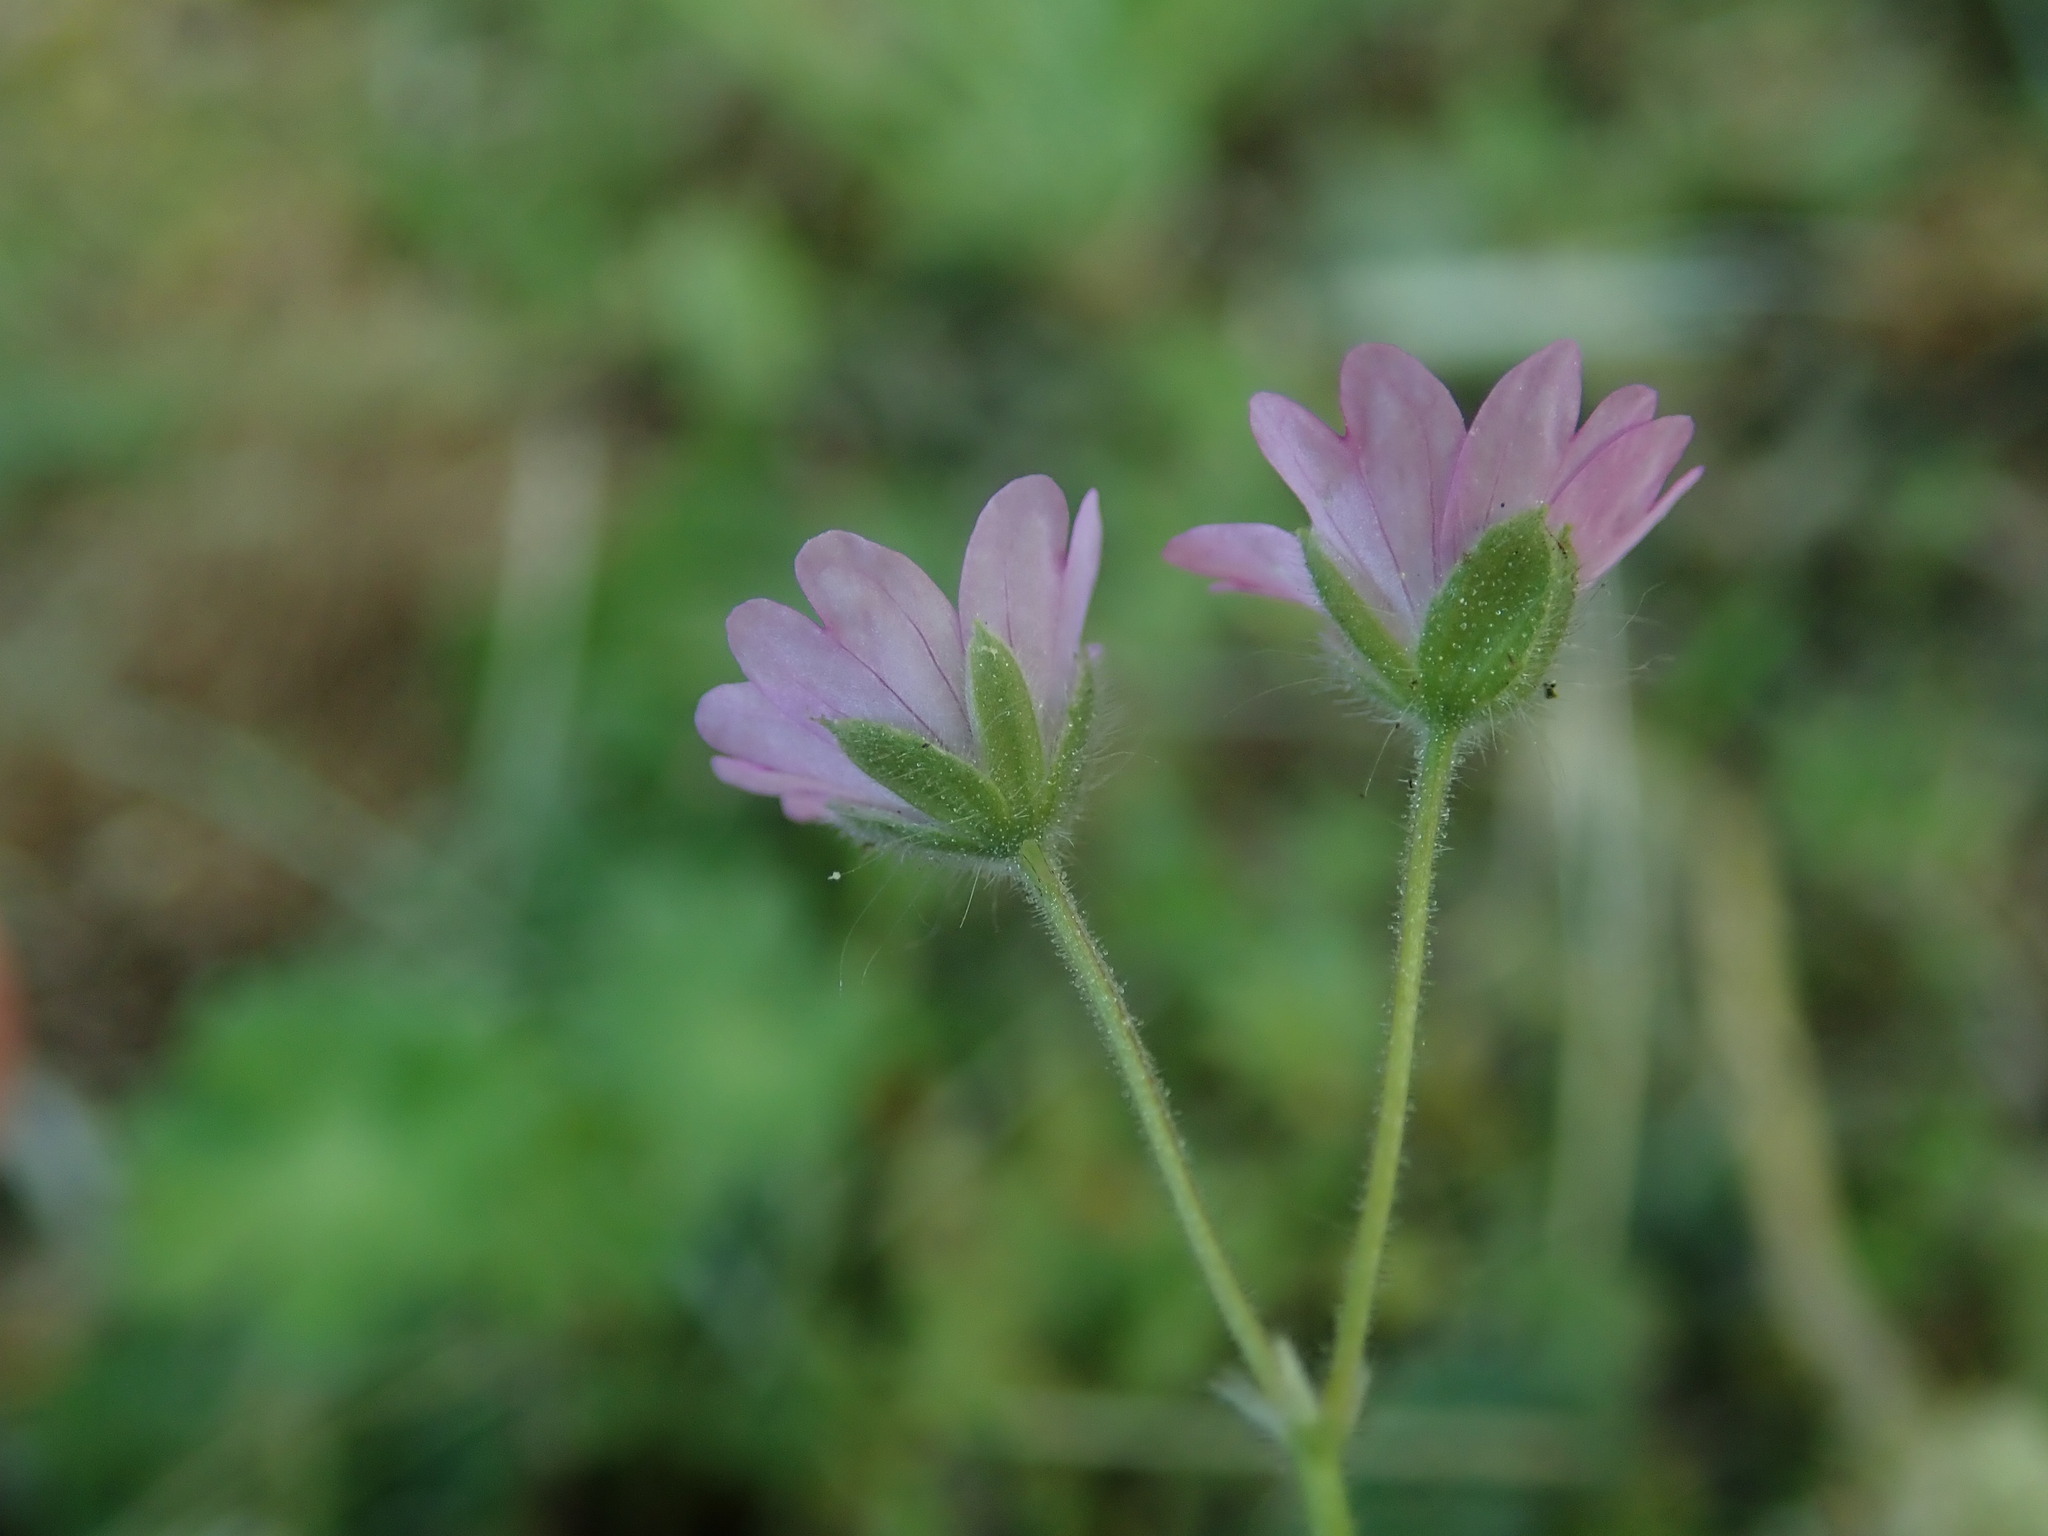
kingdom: Plantae
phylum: Tracheophyta
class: Magnoliopsida
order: Geraniales
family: Geraniaceae
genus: Geranium
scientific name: Geranium molle
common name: Dove's-foot crane's-bill
